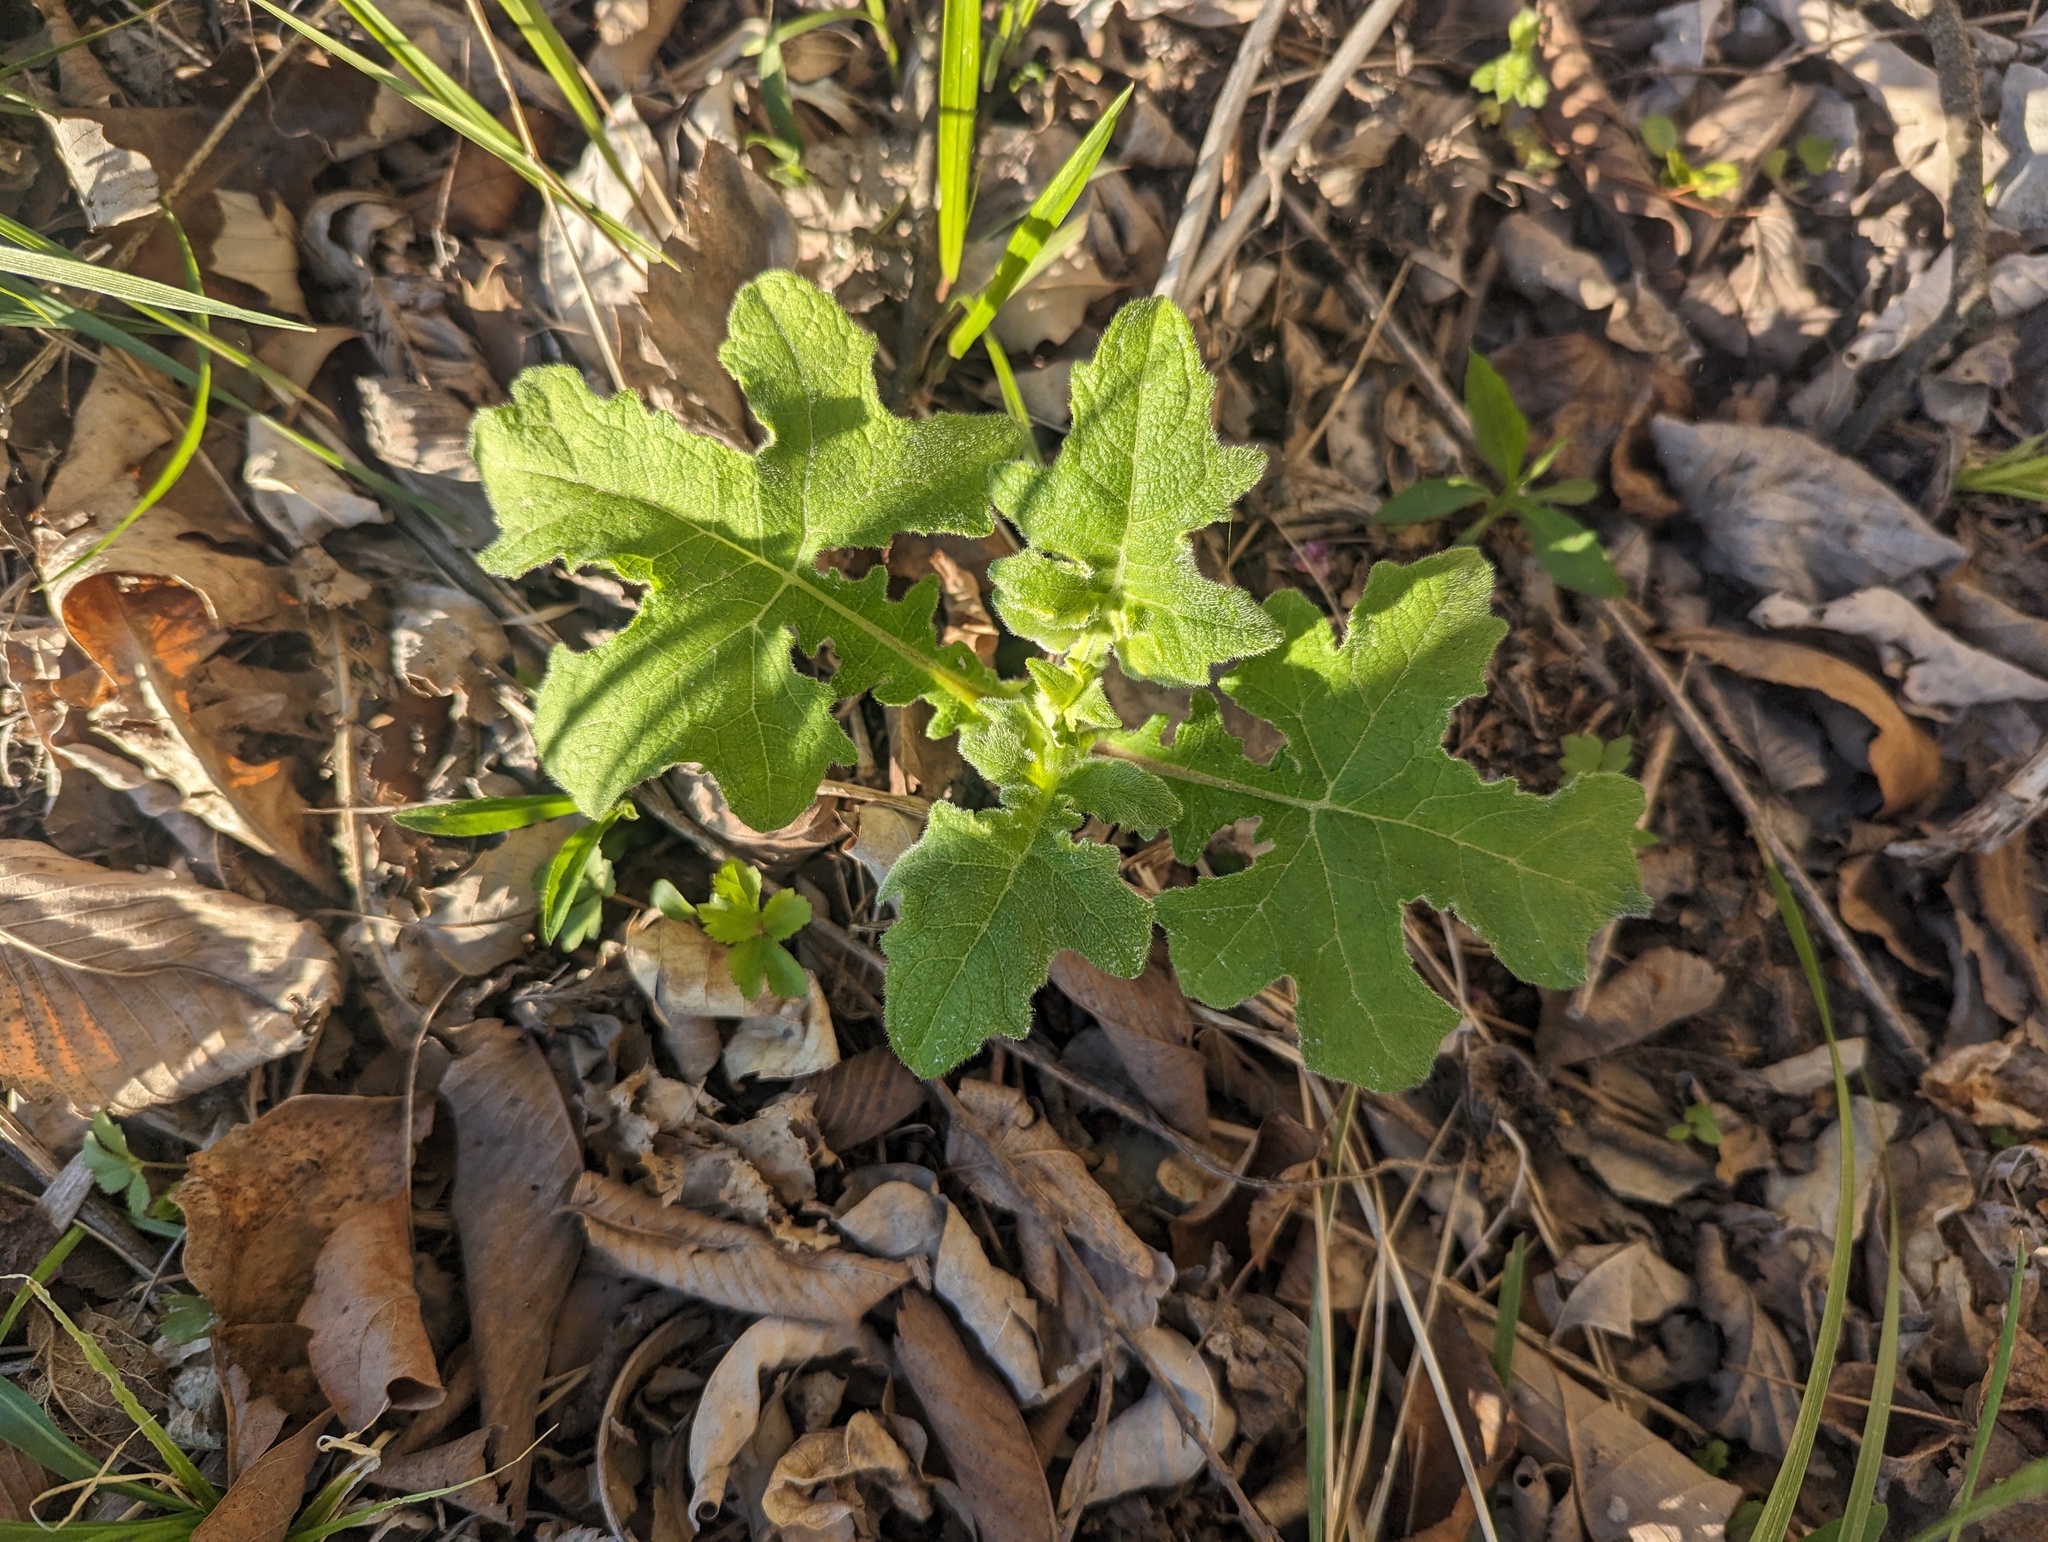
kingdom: Plantae
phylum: Tracheophyta
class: Magnoliopsida
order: Asterales
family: Asteraceae
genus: Smallanthus
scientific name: Smallanthus uvedalia
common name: Bear's-foot
